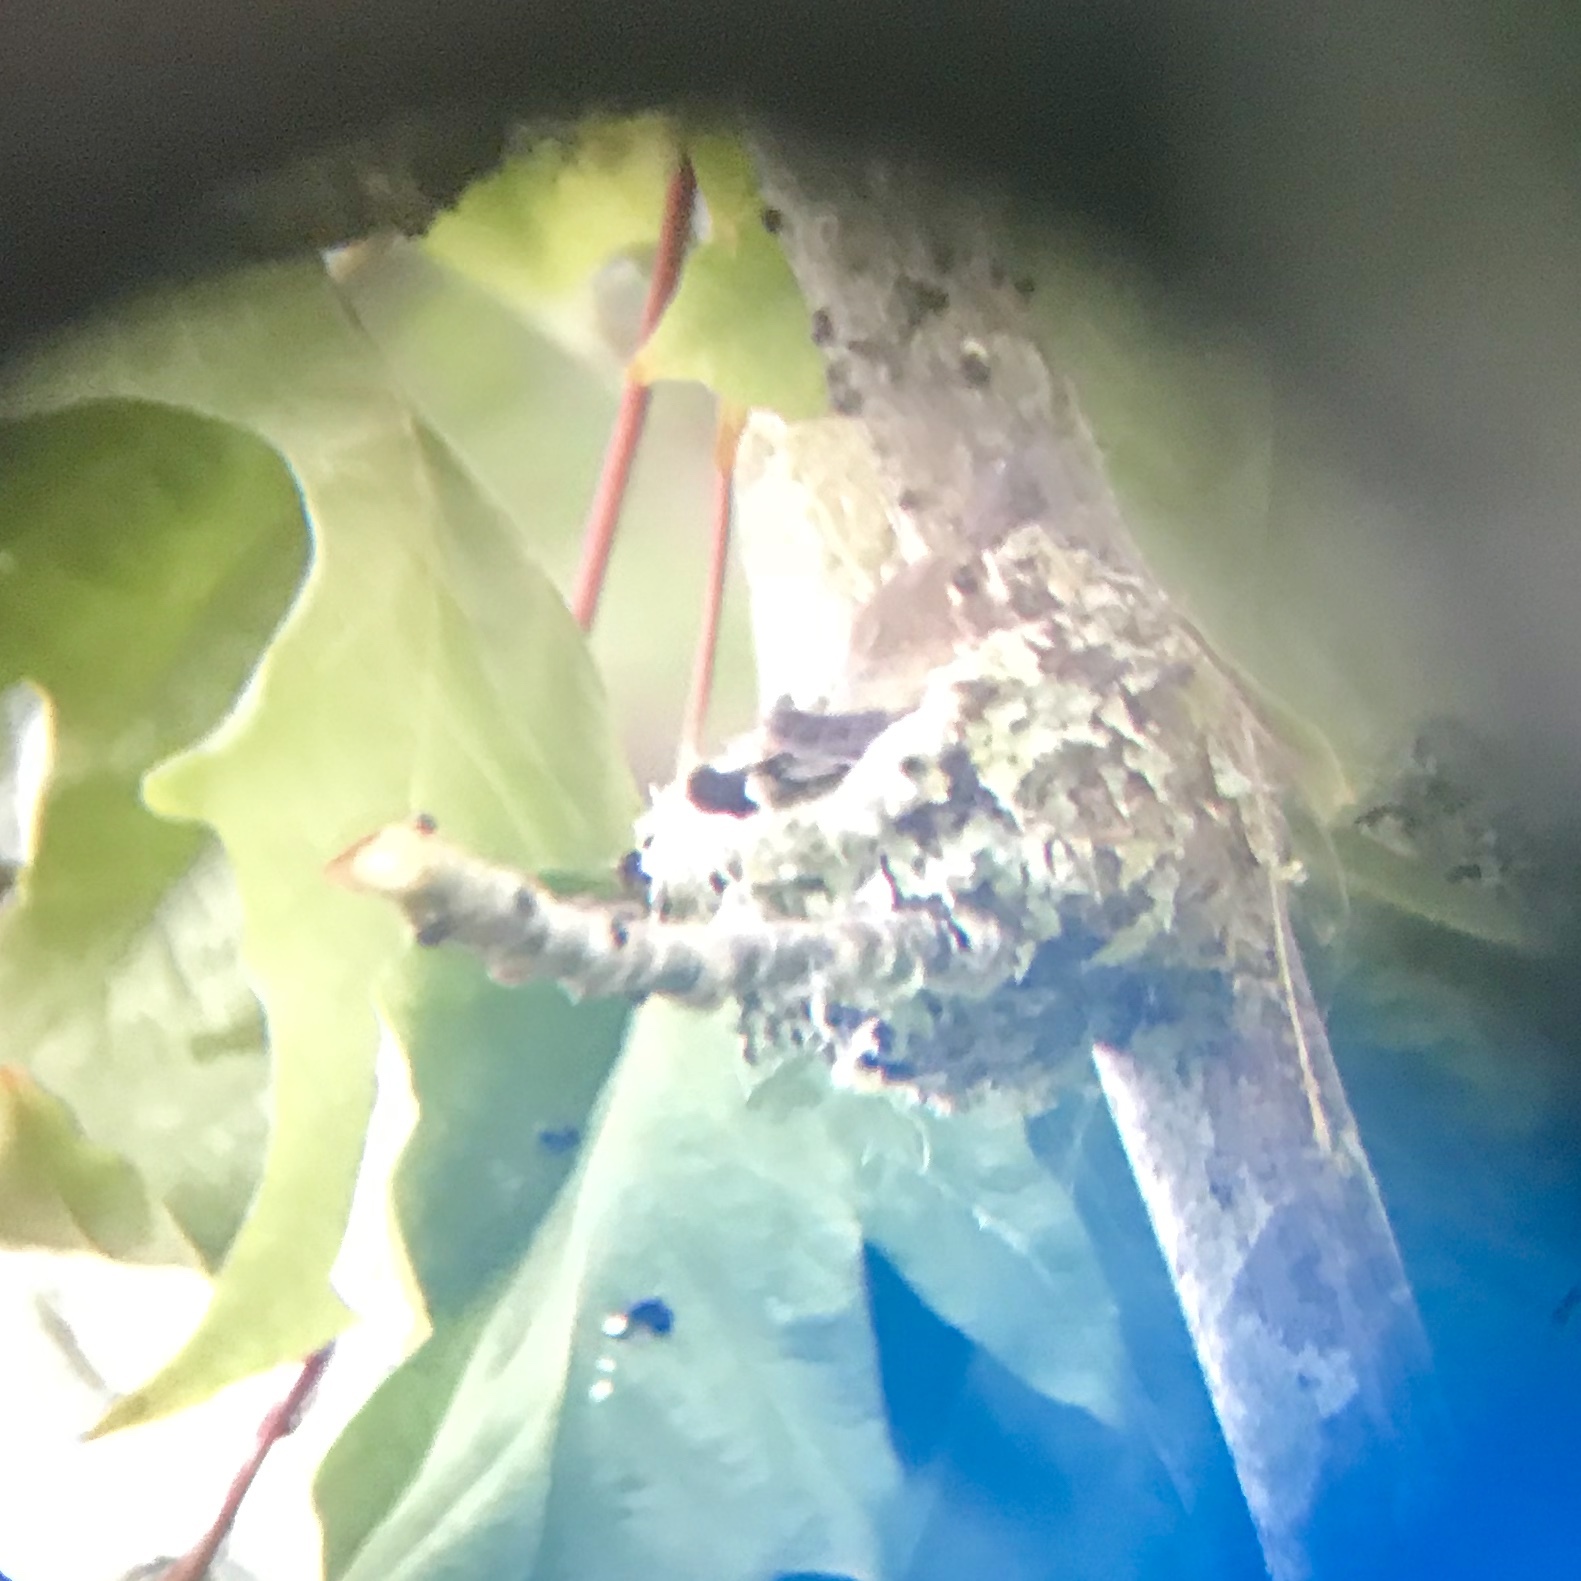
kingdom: Animalia
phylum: Chordata
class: Aves
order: Apodiformes
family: Trochilidae
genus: Selasphorus
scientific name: Selasphorus rufus
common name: Rufous hummingbird
